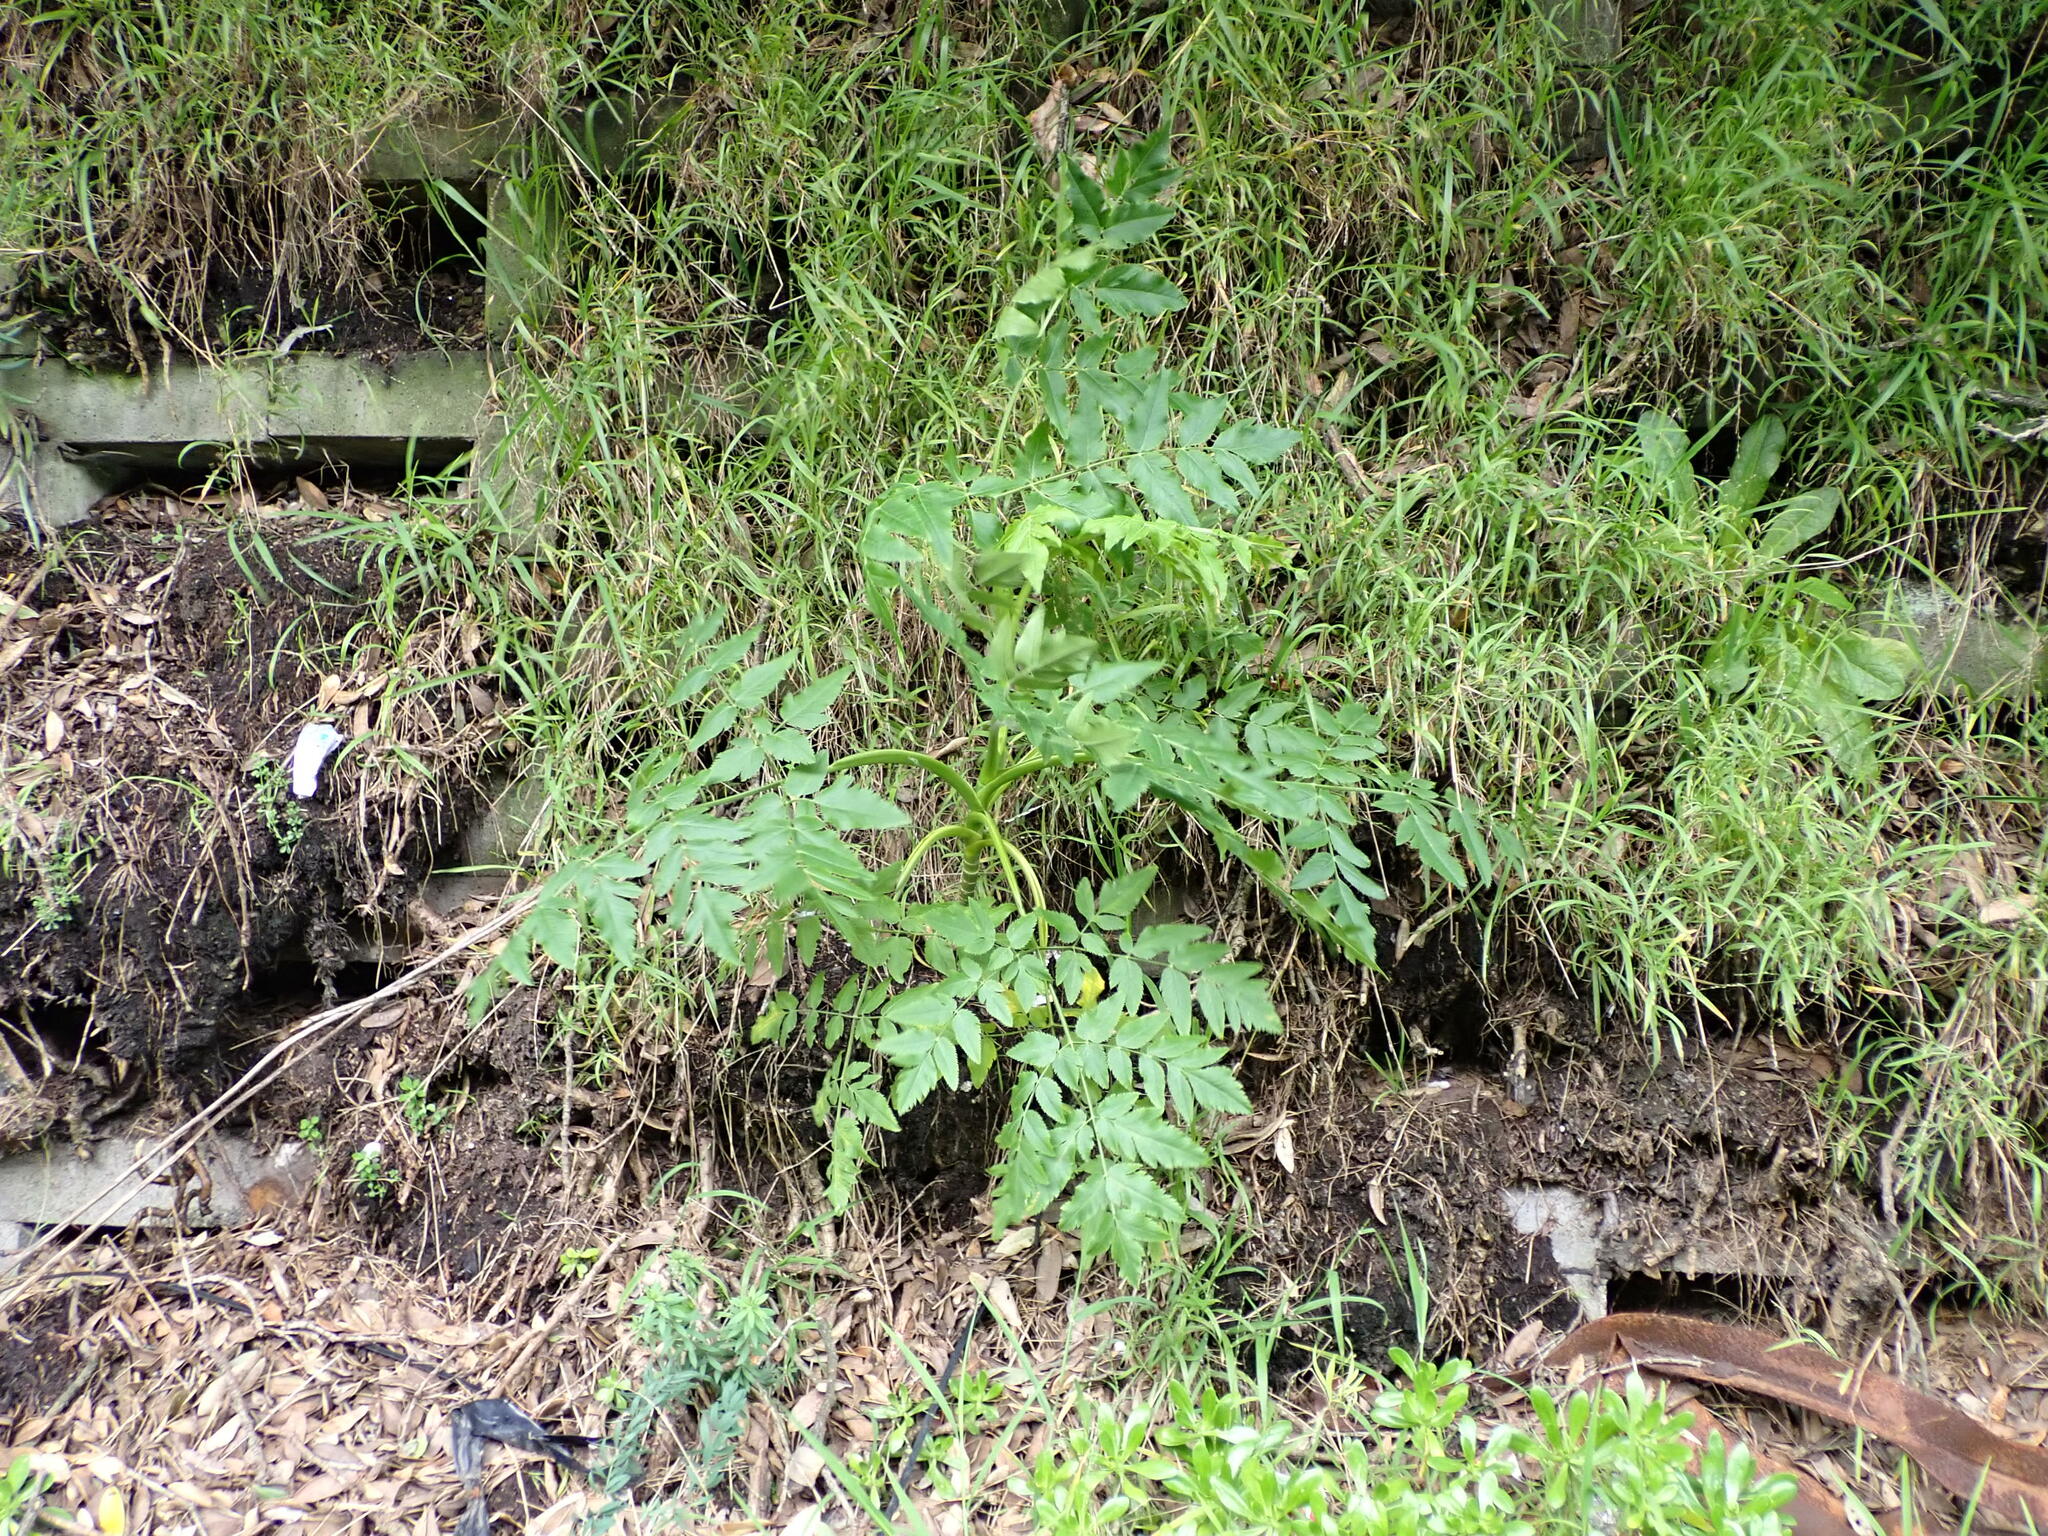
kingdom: Plantae
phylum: Tracheophyta
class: Magnoliopsida
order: Apiales
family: Apiaceae
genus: Daucus
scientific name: Daucus decipiens
